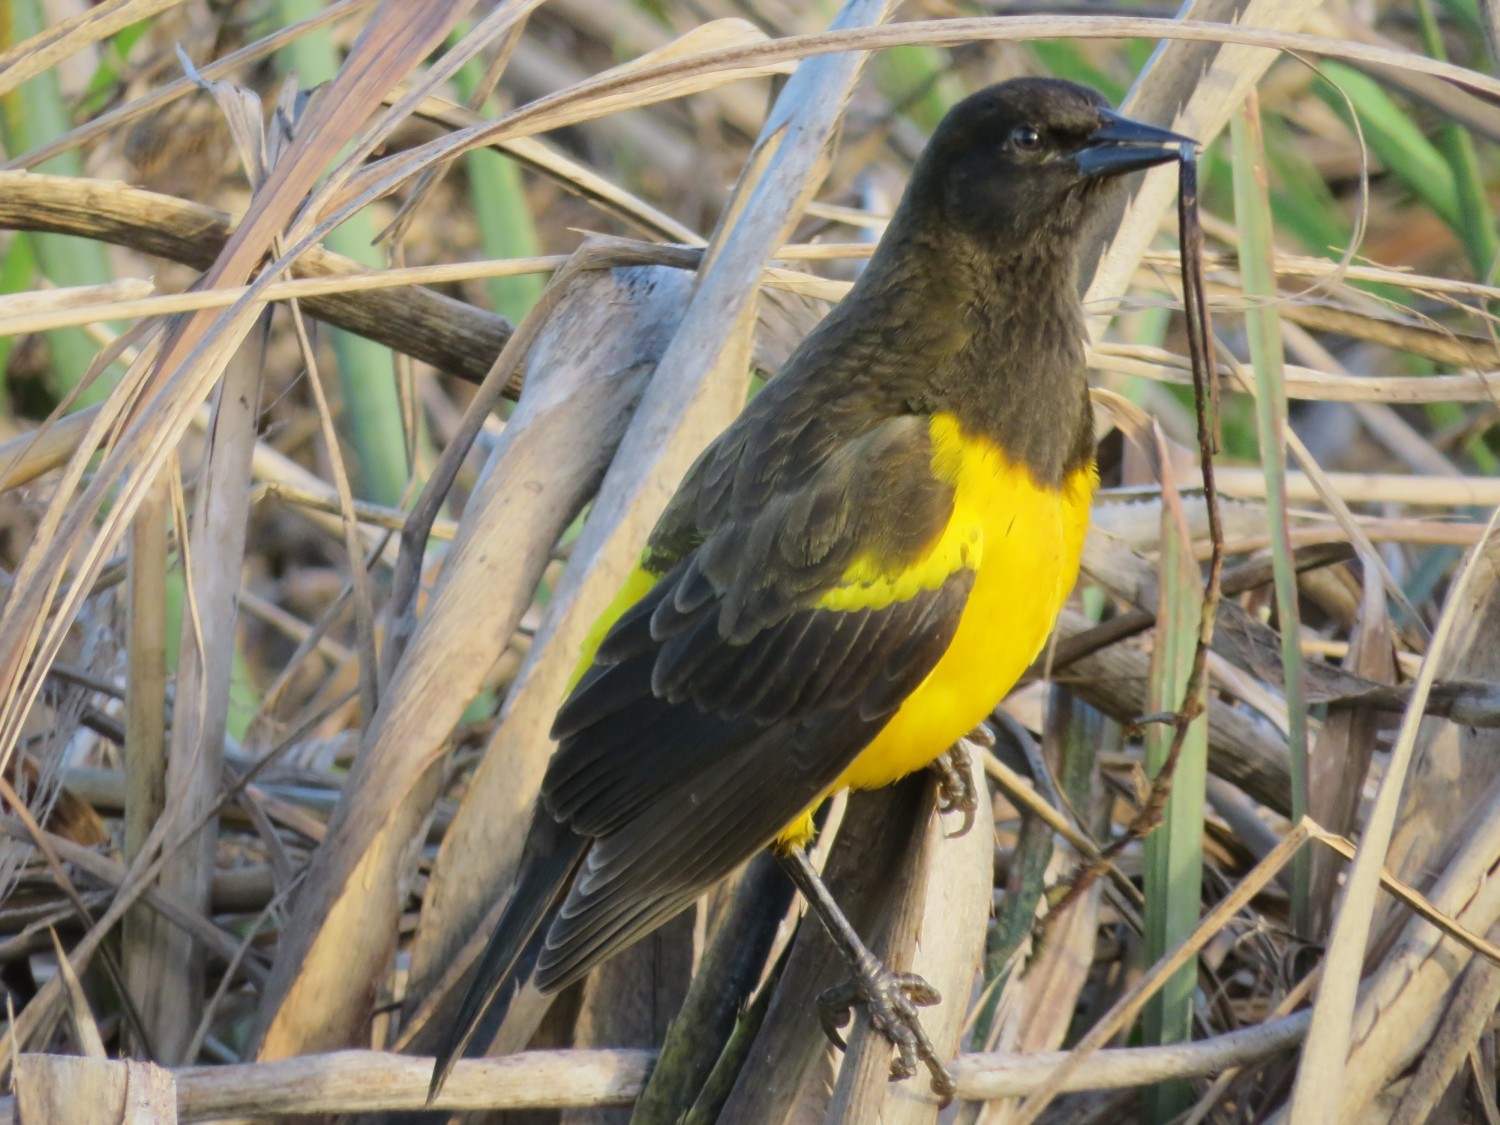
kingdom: Animalia
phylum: Chordata
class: Aves
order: Passeriformes
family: Icteridae
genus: Pseudoleistes
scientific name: Pseudoleistes guirahuro
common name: Yellow-rumped marshbird
